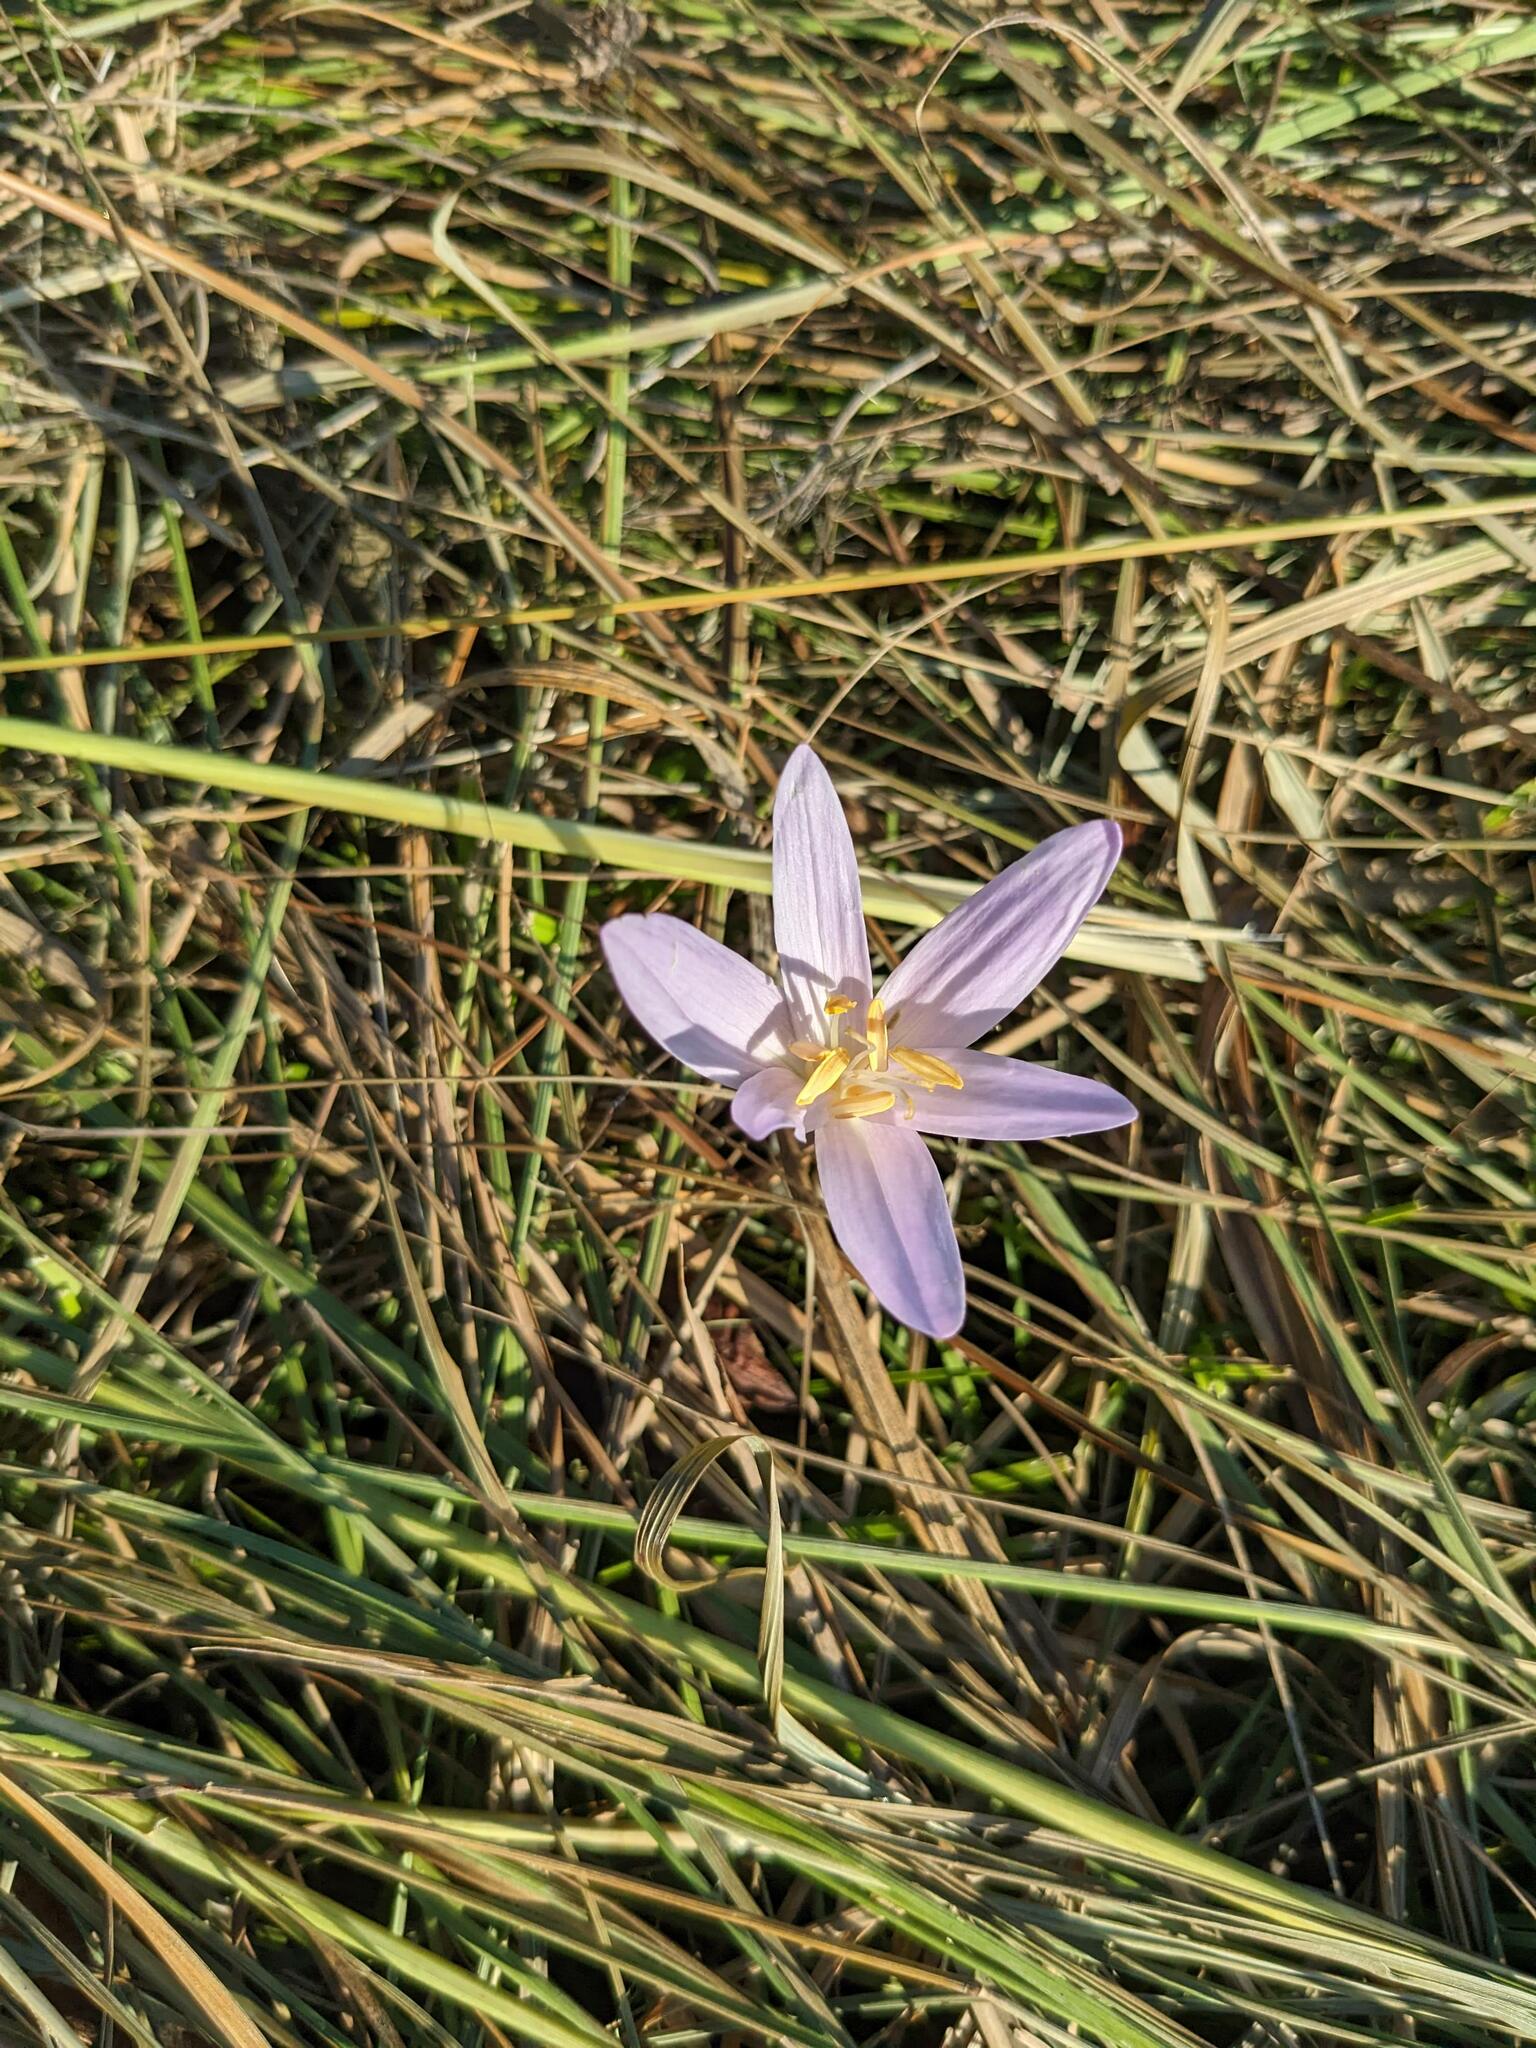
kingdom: Plantae
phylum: Tracheophyta
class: Liliopsida
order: Liliales
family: Colchicaceae
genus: Colchicum
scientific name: Colchicum autumnale
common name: Autumn crocus
